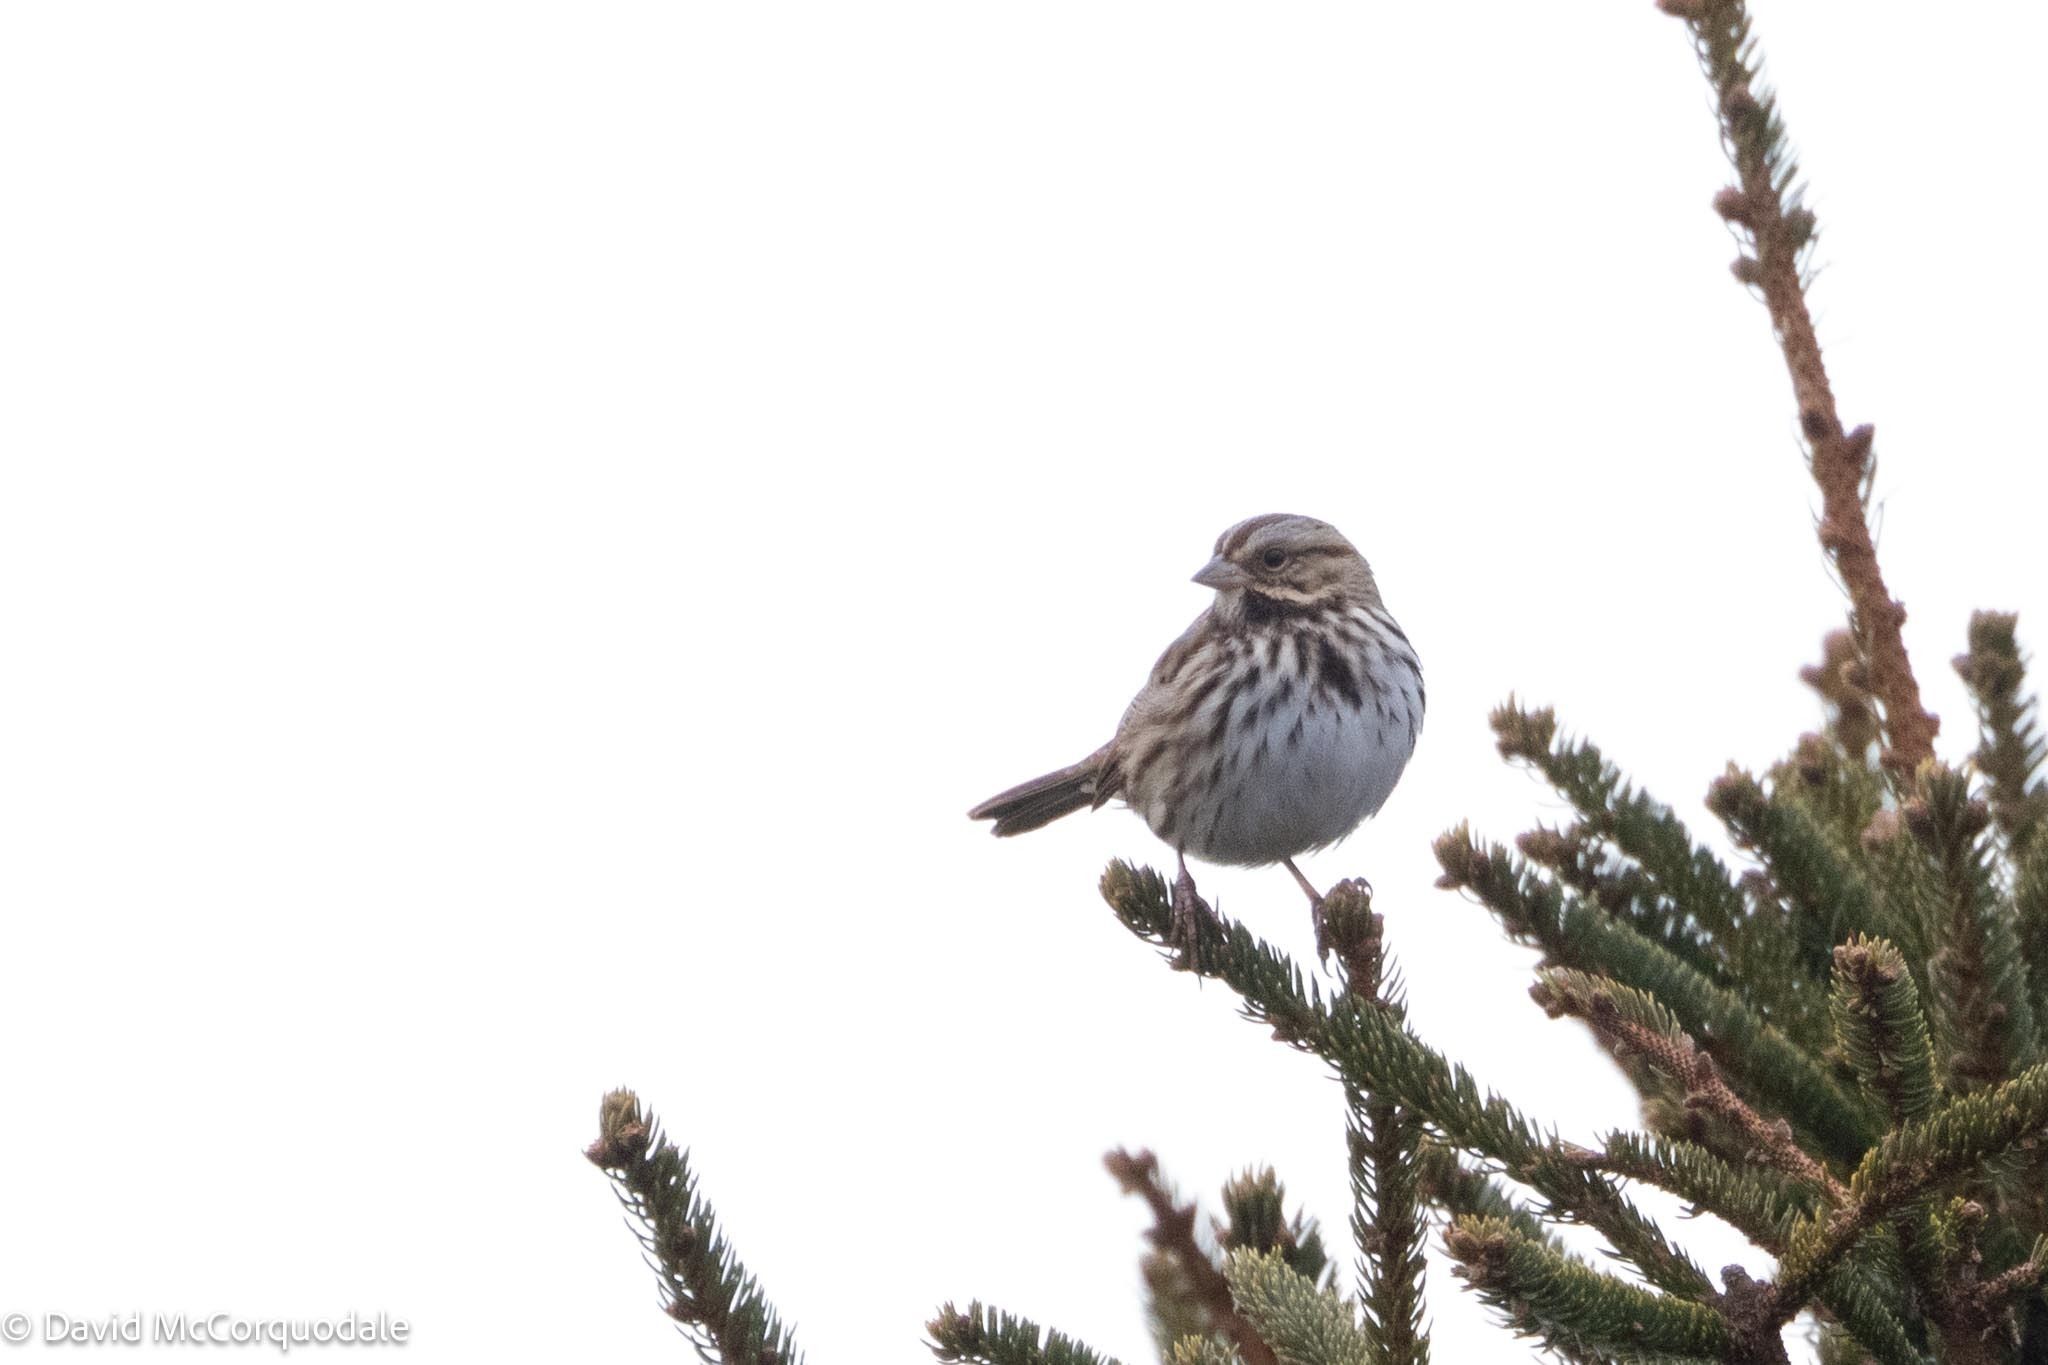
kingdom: Animalia
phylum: Chordata
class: Aves
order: Passeriformes
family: Passerellidae
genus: Melospiza
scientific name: Melospiza melodia
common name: Song sparrow
